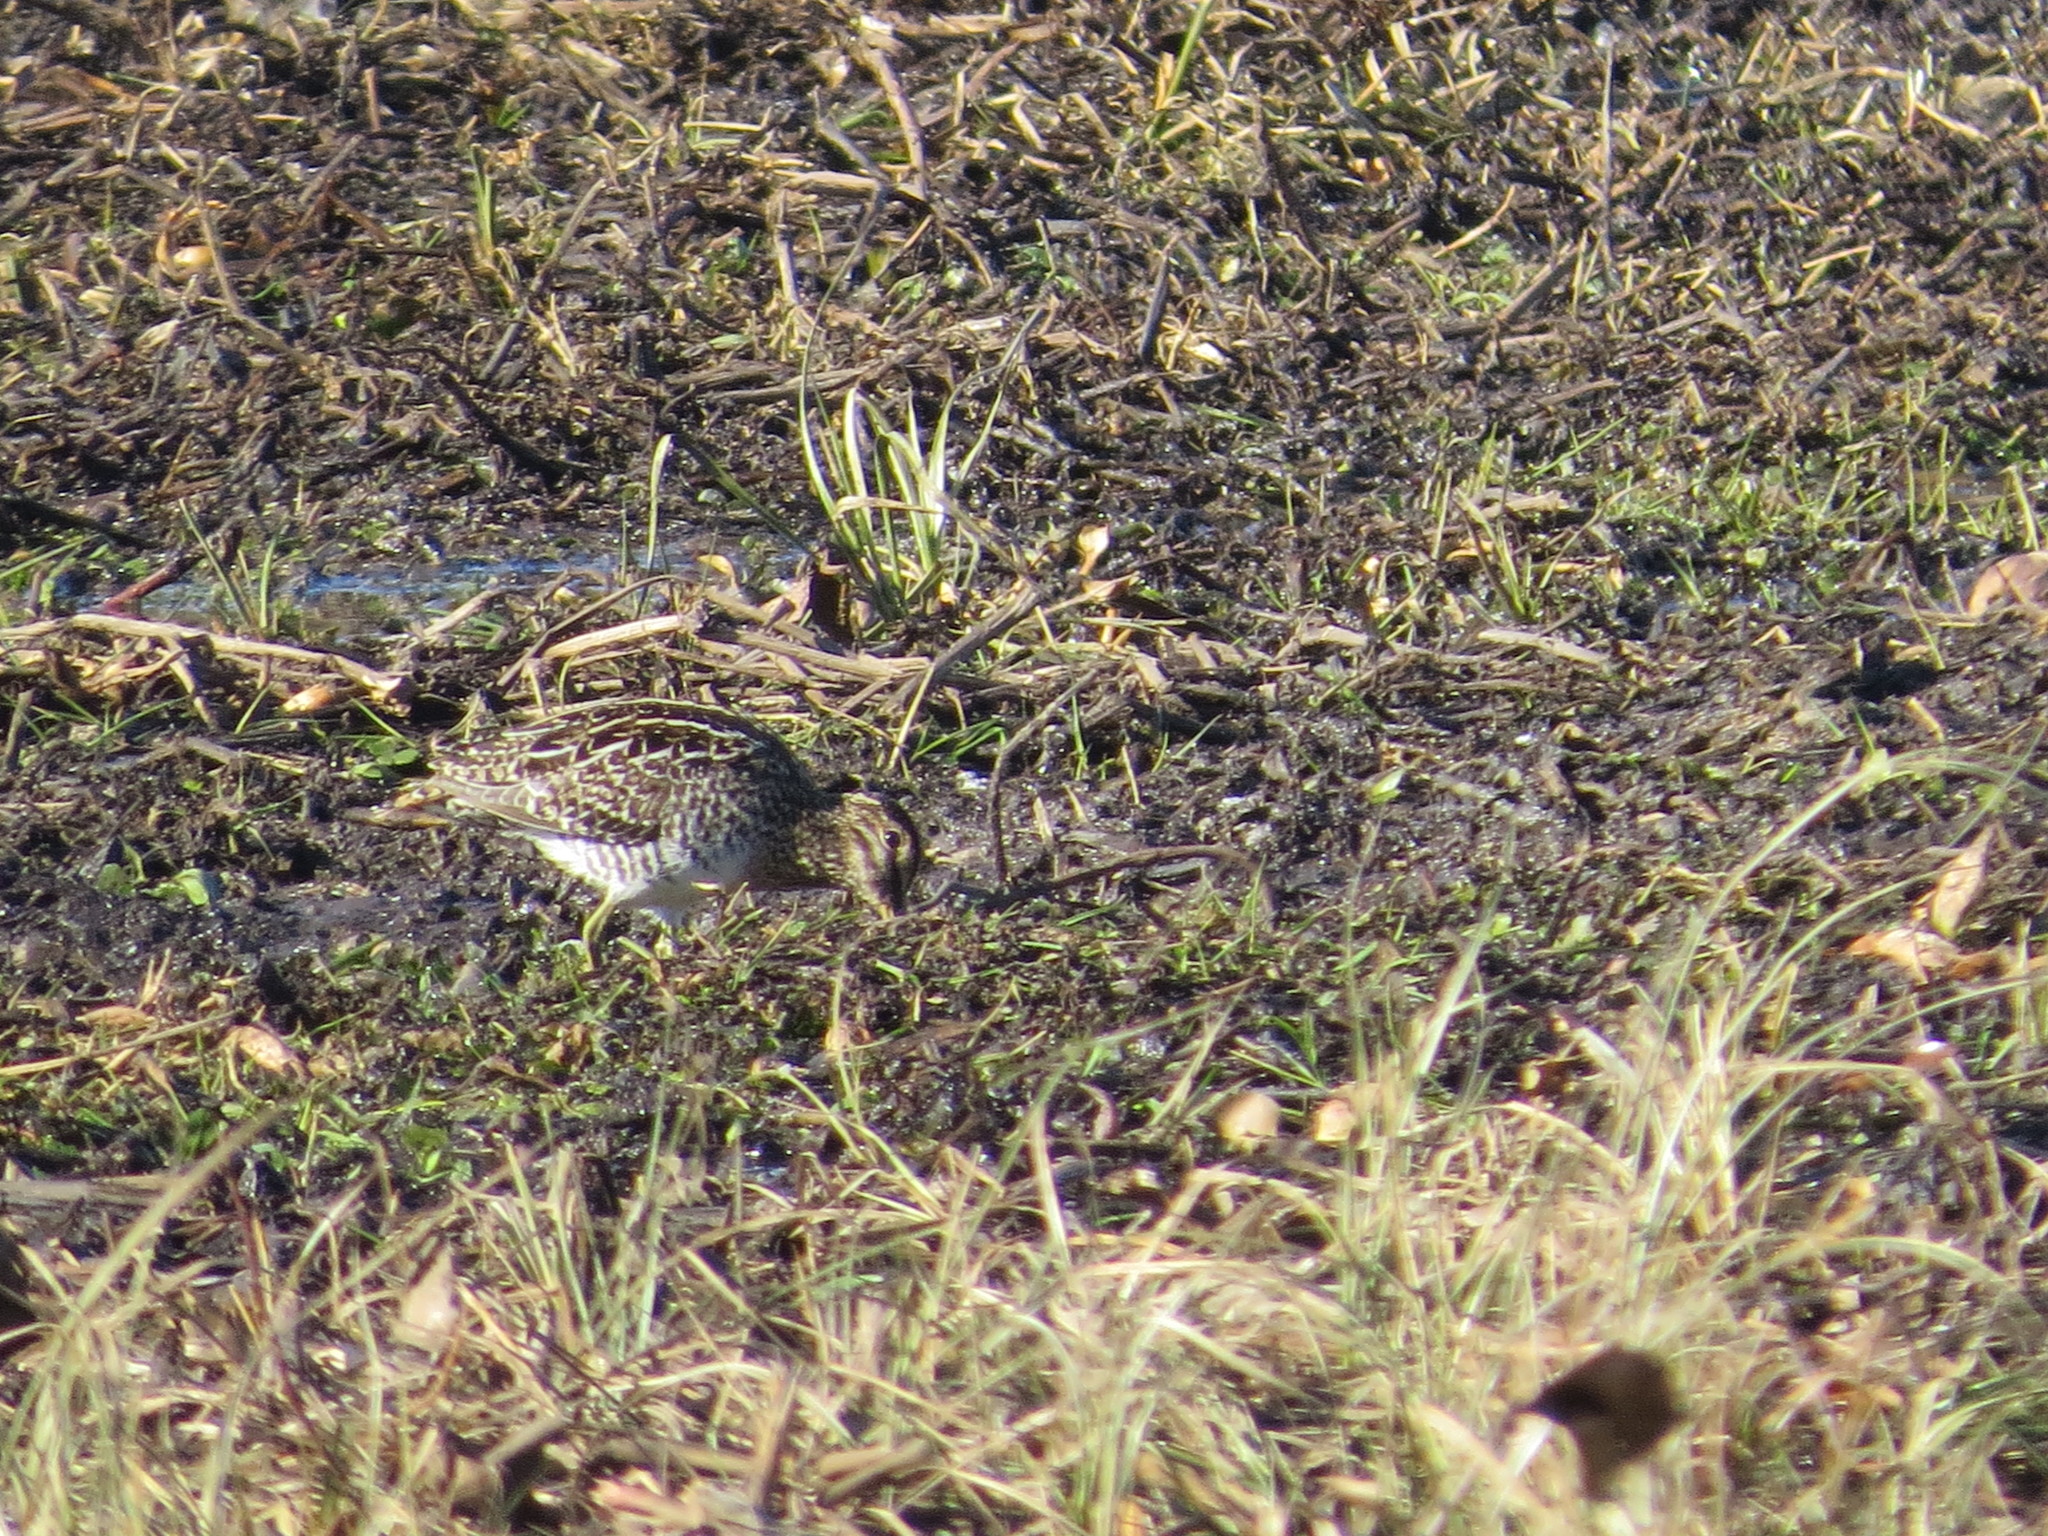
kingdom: Animalia
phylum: Chordata
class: Aves
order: Charadriiformes
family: Scolopacidae
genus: Gallinago
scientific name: Gallinago paraguaiae
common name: South american snipe
